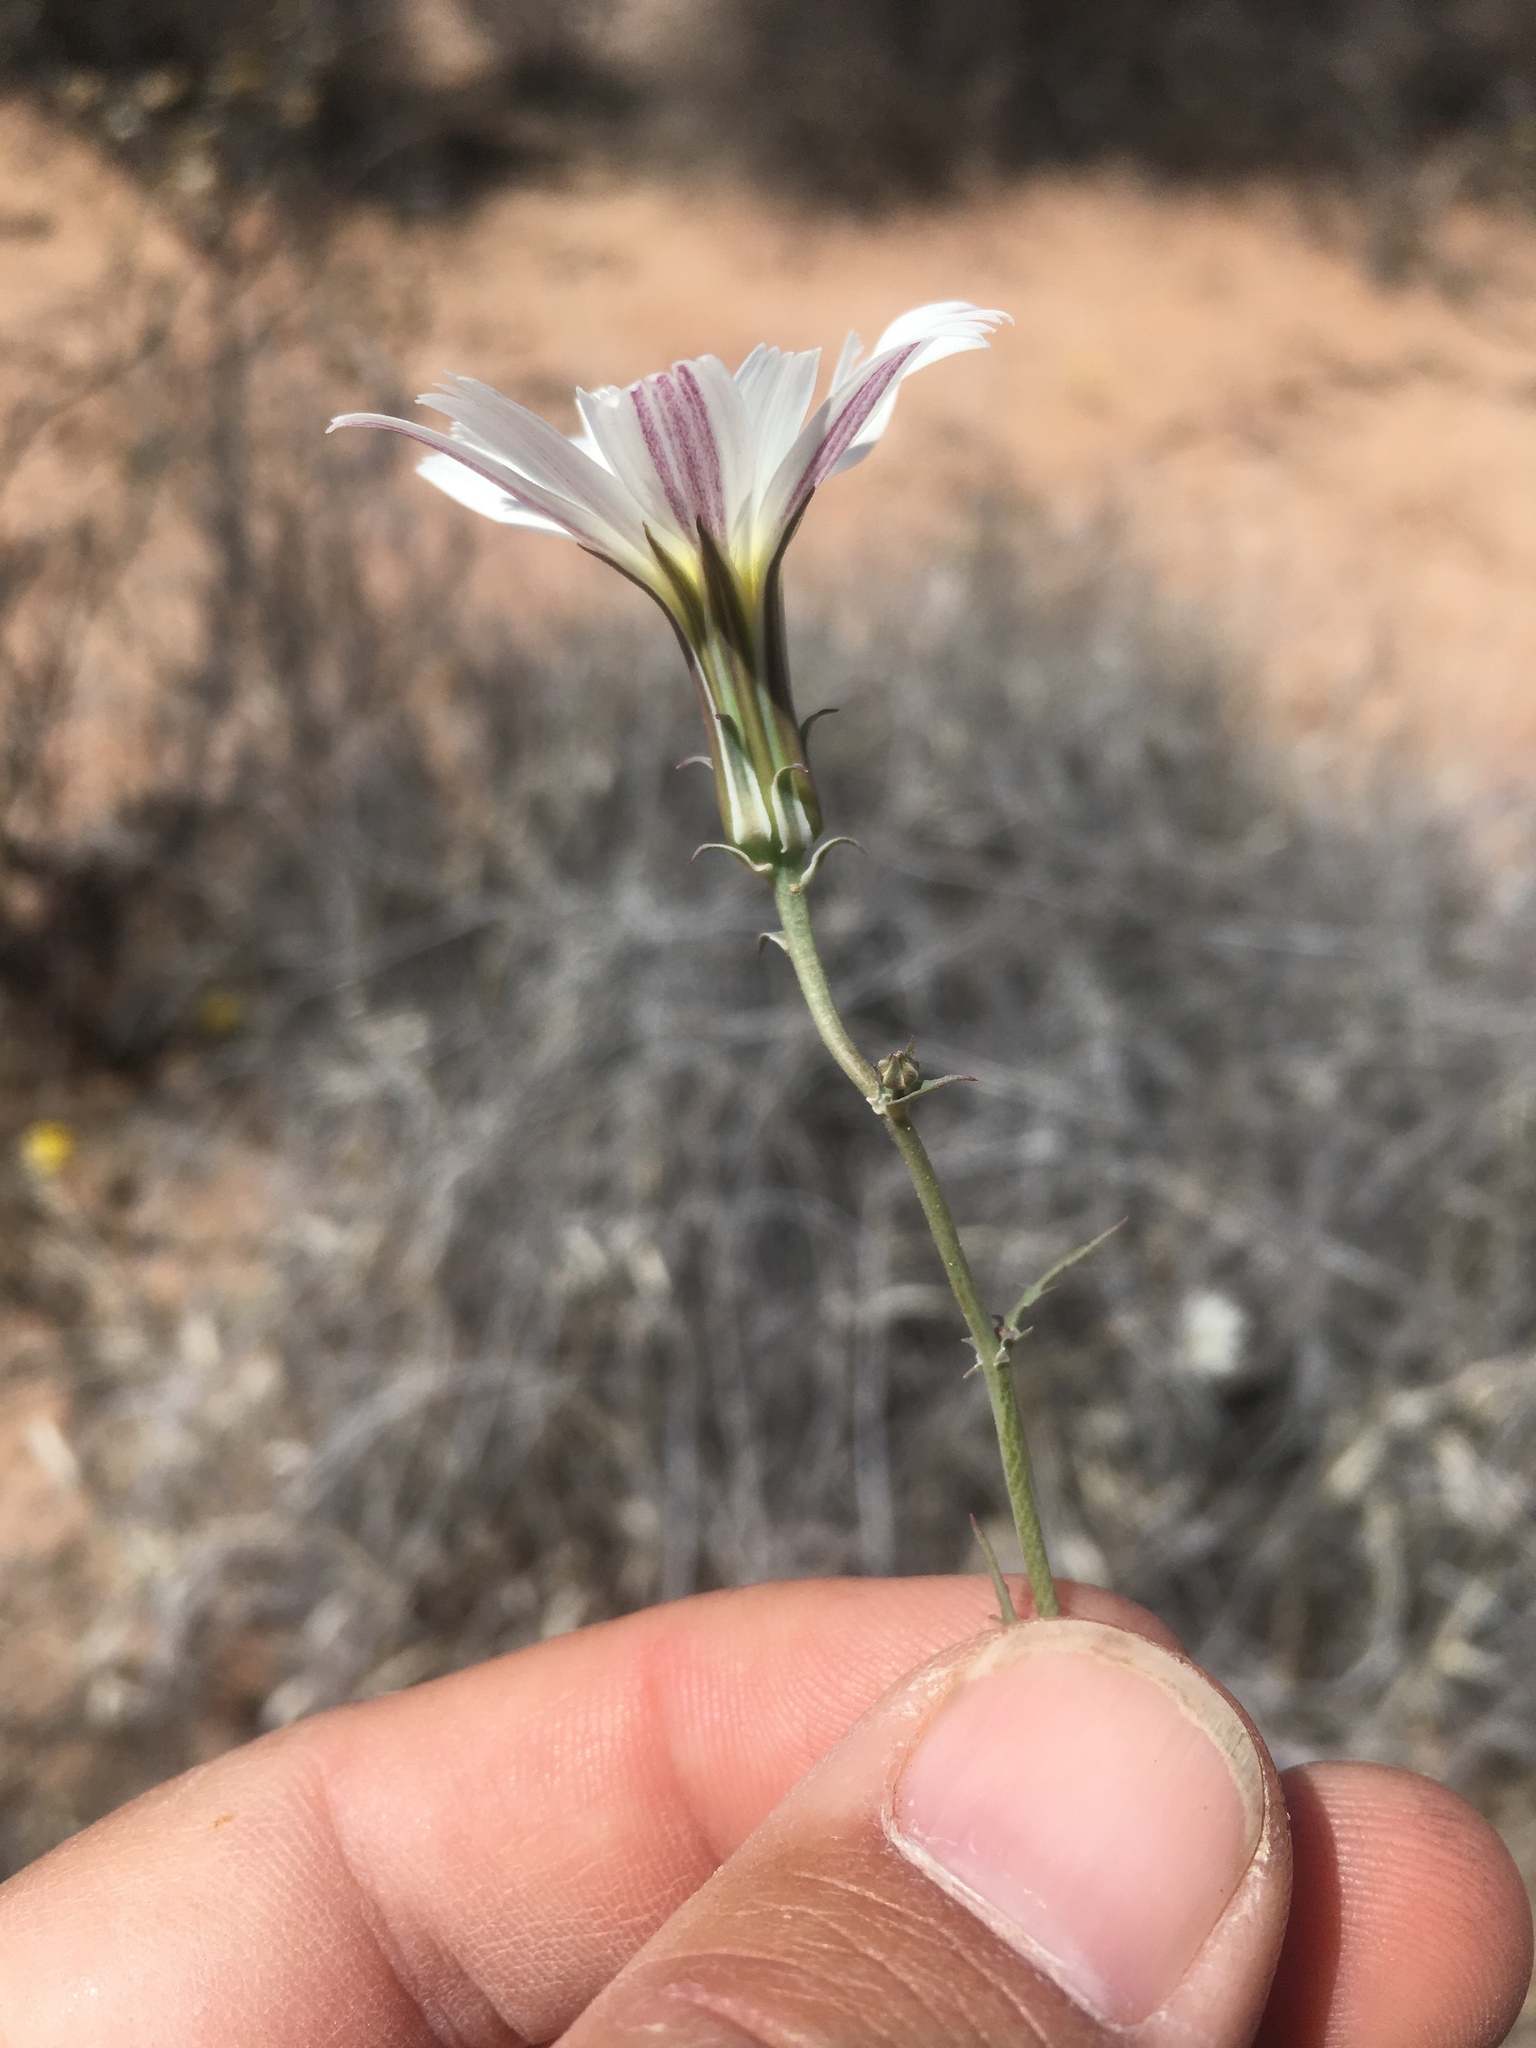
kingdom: Plantae
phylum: Tracheophyta
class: Magnoliopsida
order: Asterales
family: Asteraceae
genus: Rafinesquia
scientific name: Rafinesquia neomexicana
